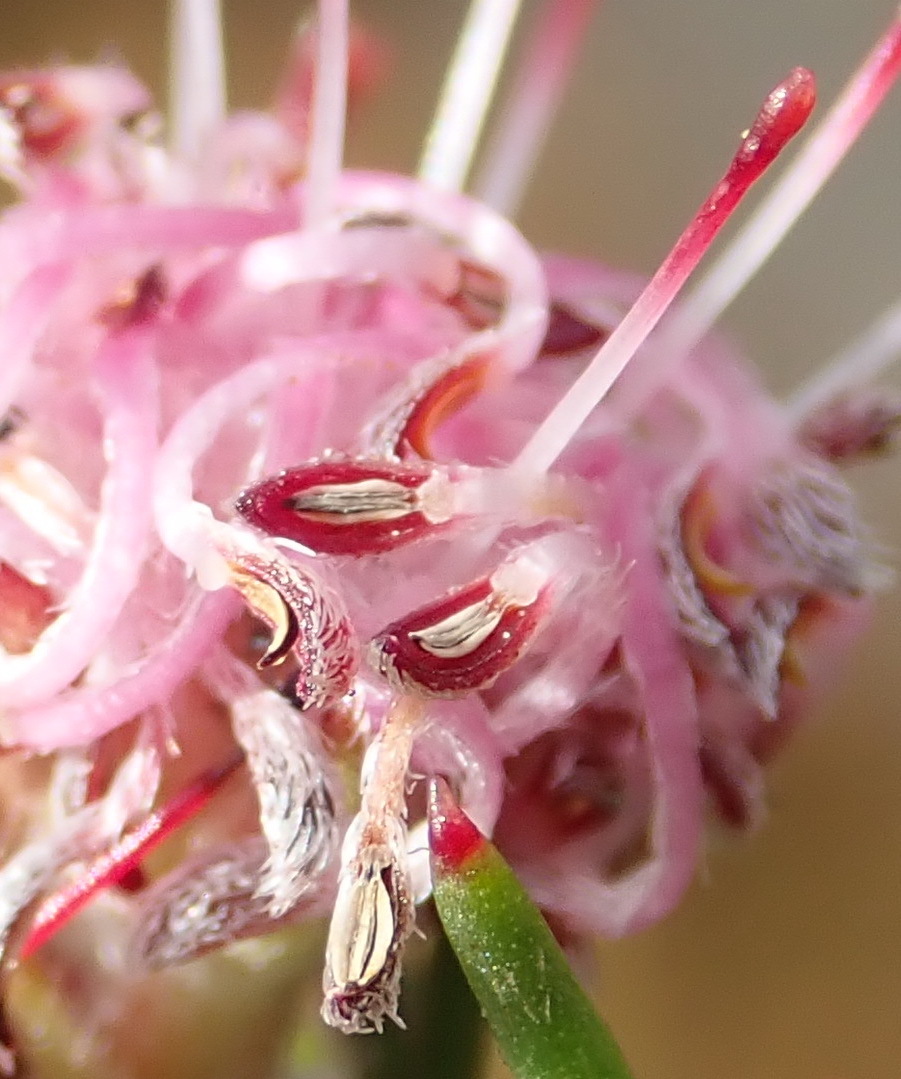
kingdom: Plantae
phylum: Tracheophyta
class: Magnoliopsida
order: Proteales
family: Proteaceae
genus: Serruria
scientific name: Serruria fasciflora
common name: Common pin spiderhead
